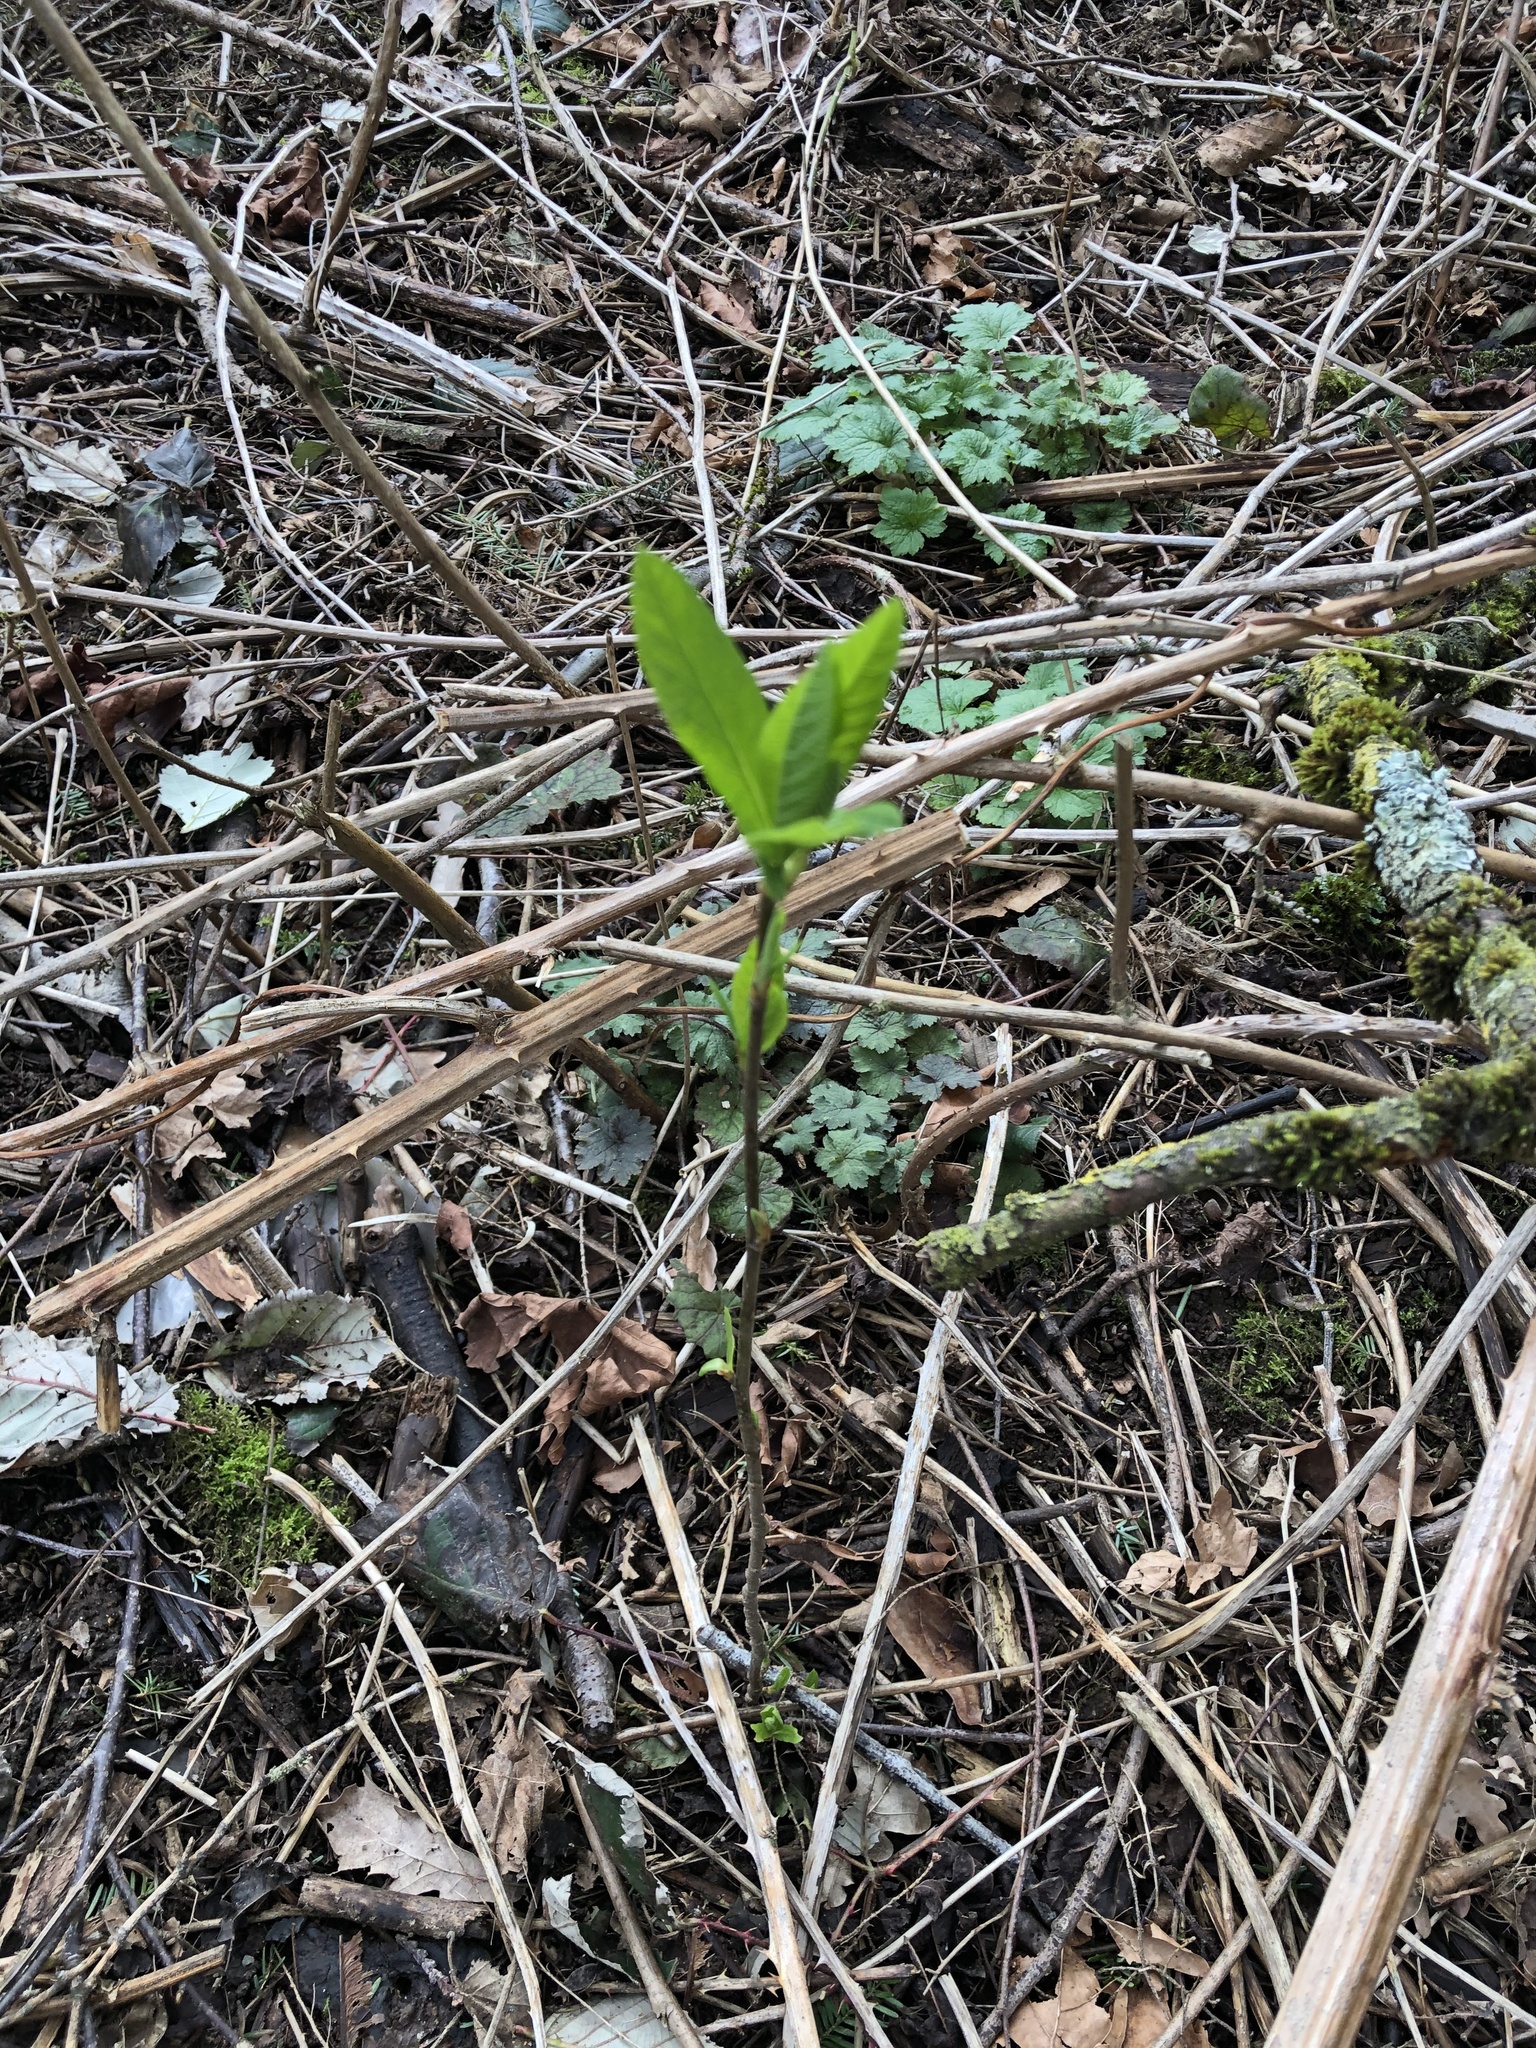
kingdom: Plantae
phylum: Tracheophyta
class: Magnoliopsida
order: Rosales
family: Rosaceae
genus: Oemleria
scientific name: Oemleria cerasiformis
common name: Osoberry
